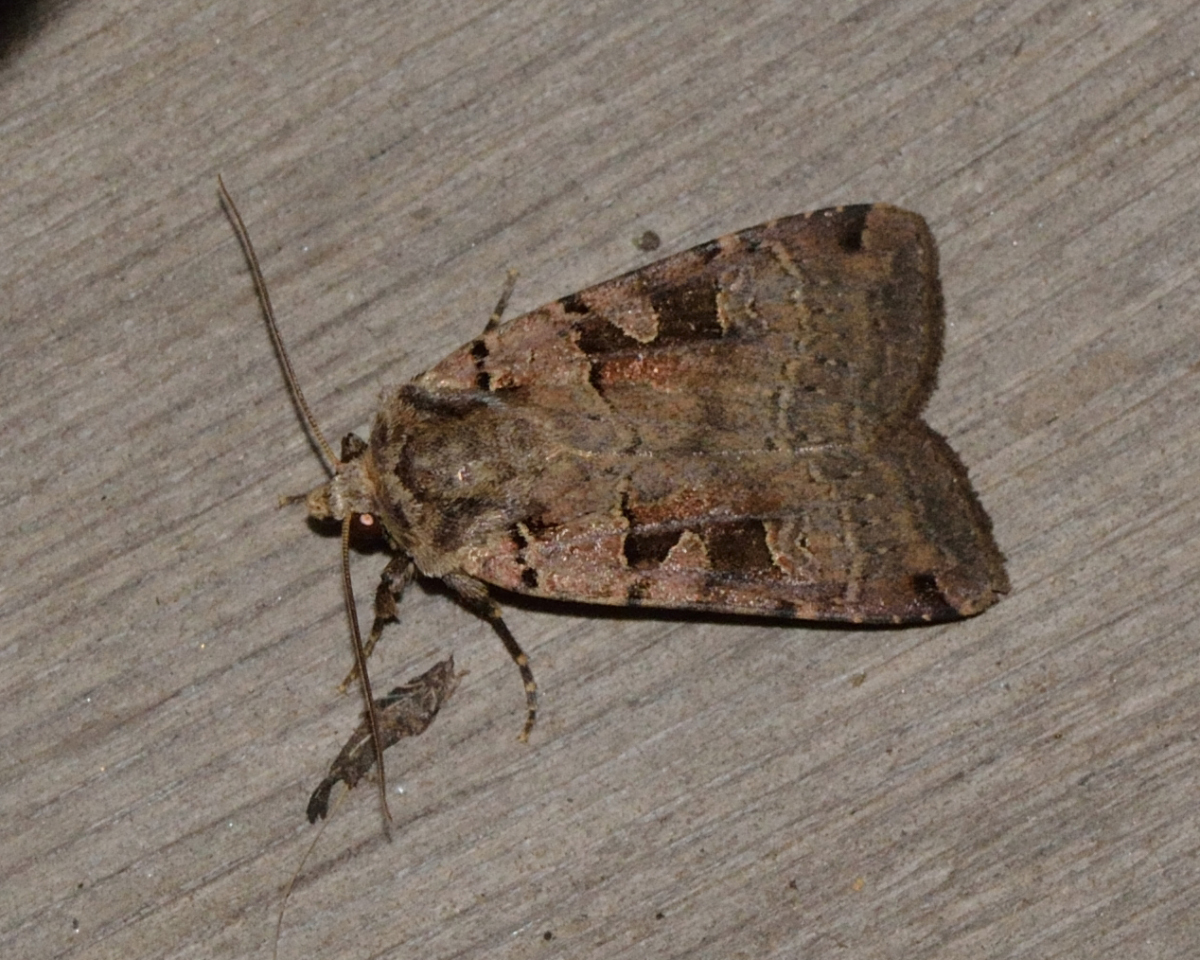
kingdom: Animalia
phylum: Arthropoda
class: Insecta
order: Lepidoptera
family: Noctuidae
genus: Xestia
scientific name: Xestia triangulum
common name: Double square-spot
